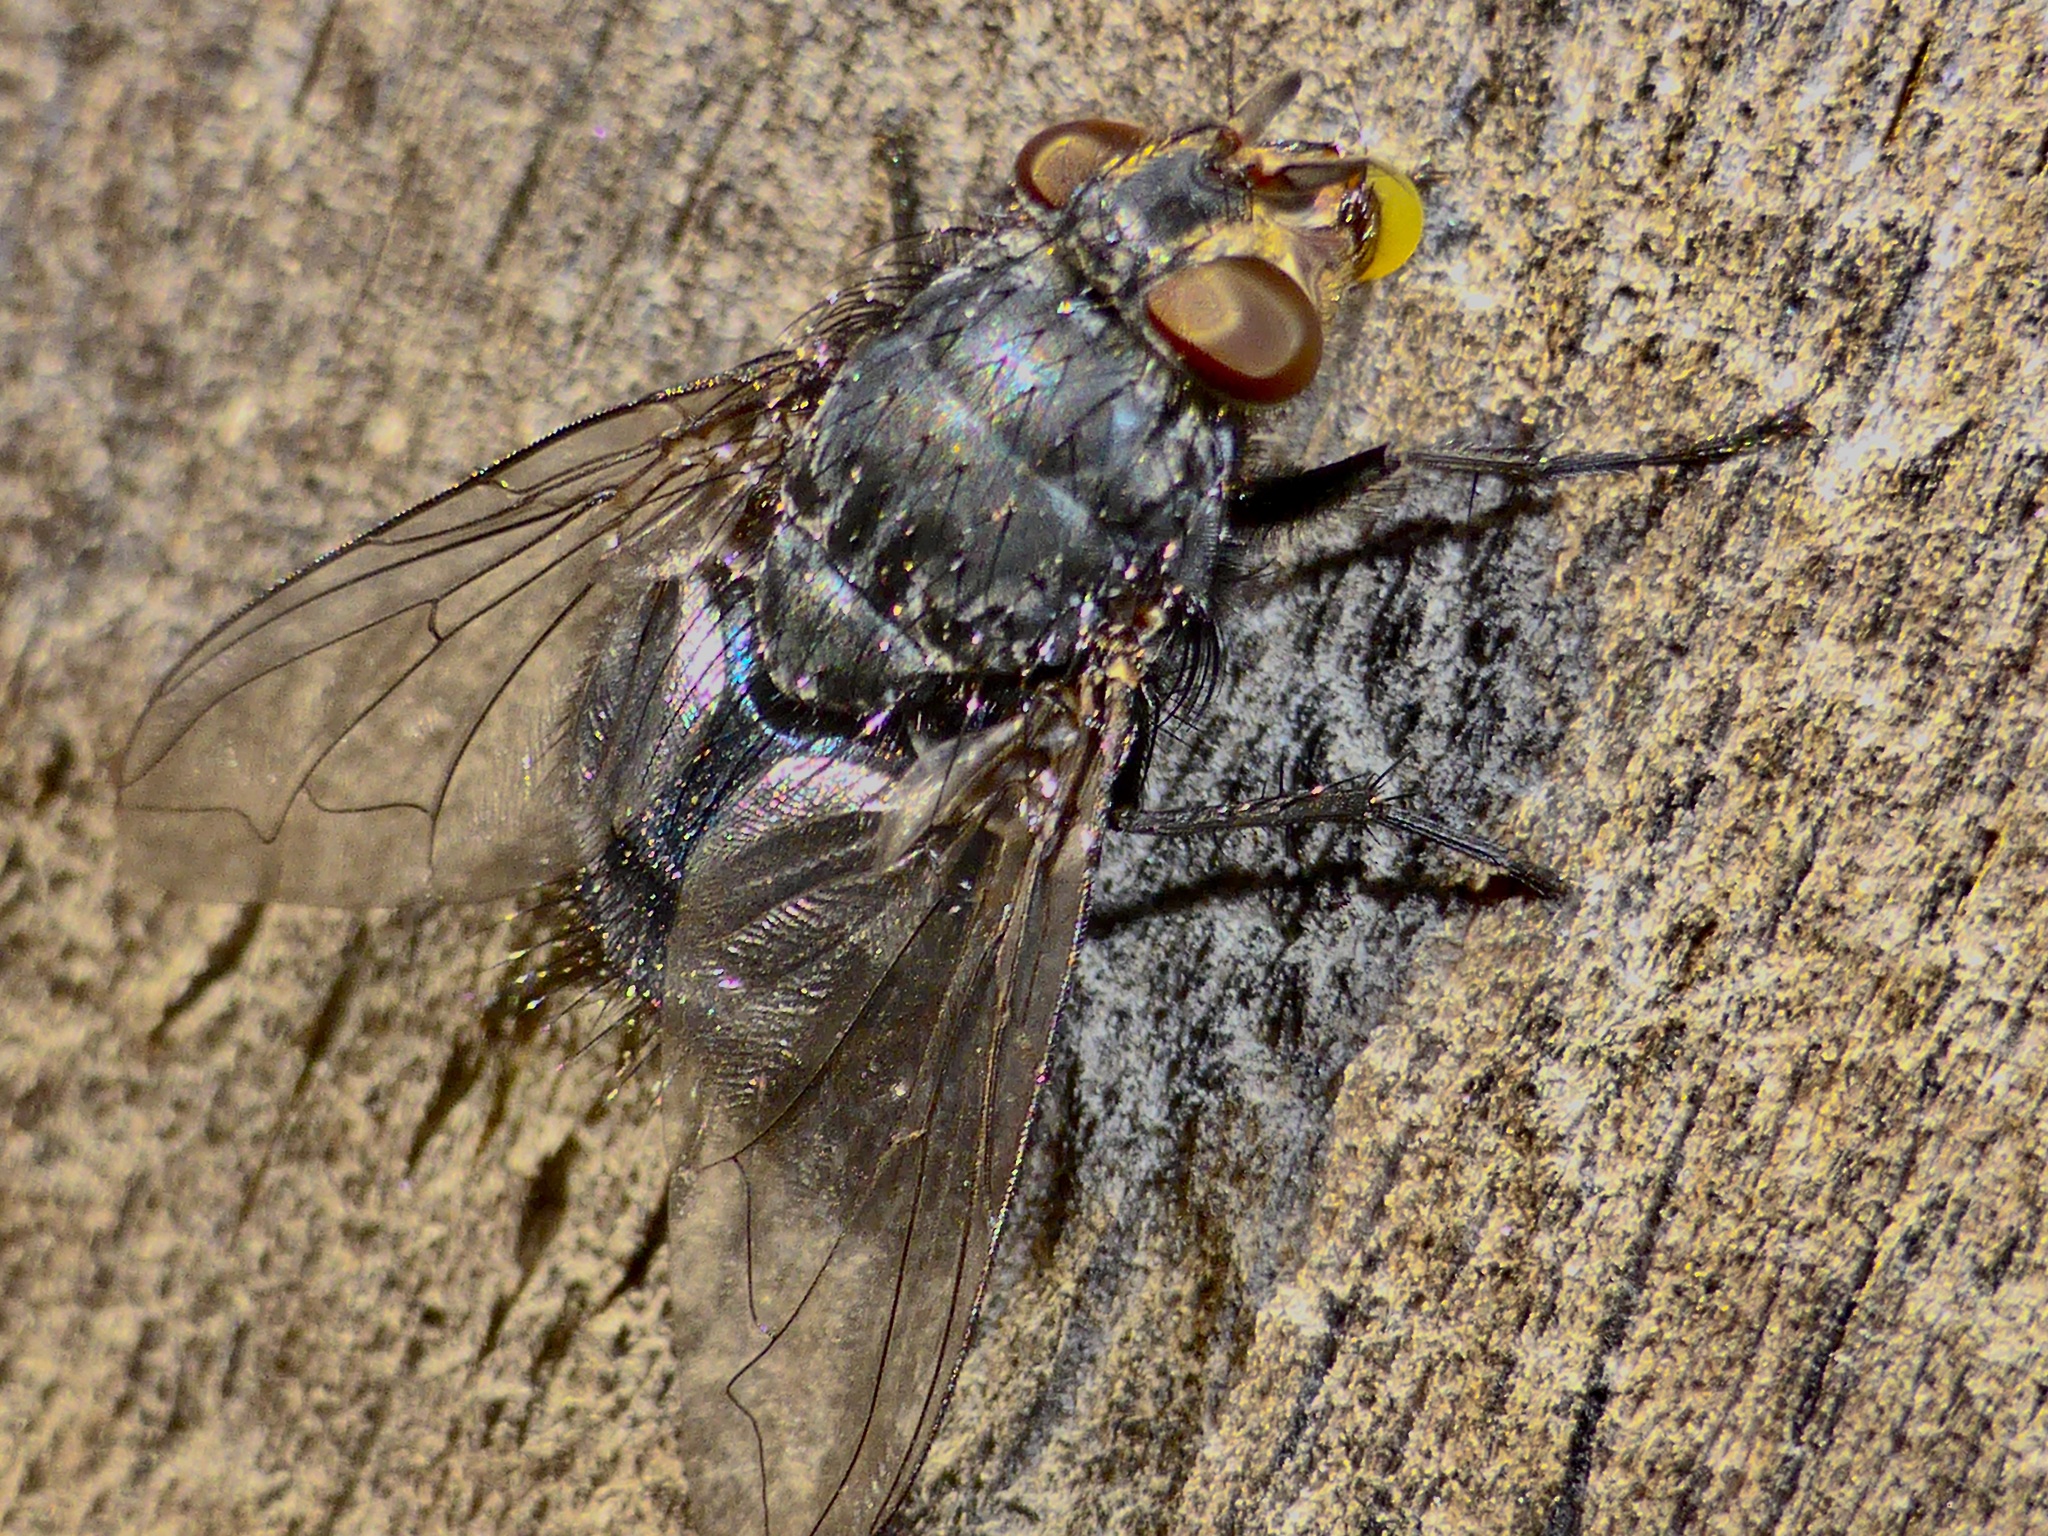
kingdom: Animalia
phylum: Arthropoda
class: Insecta
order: Diptera
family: Calliphoridae
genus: Calliphora
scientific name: Calliphora vicina
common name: Common blow flie
